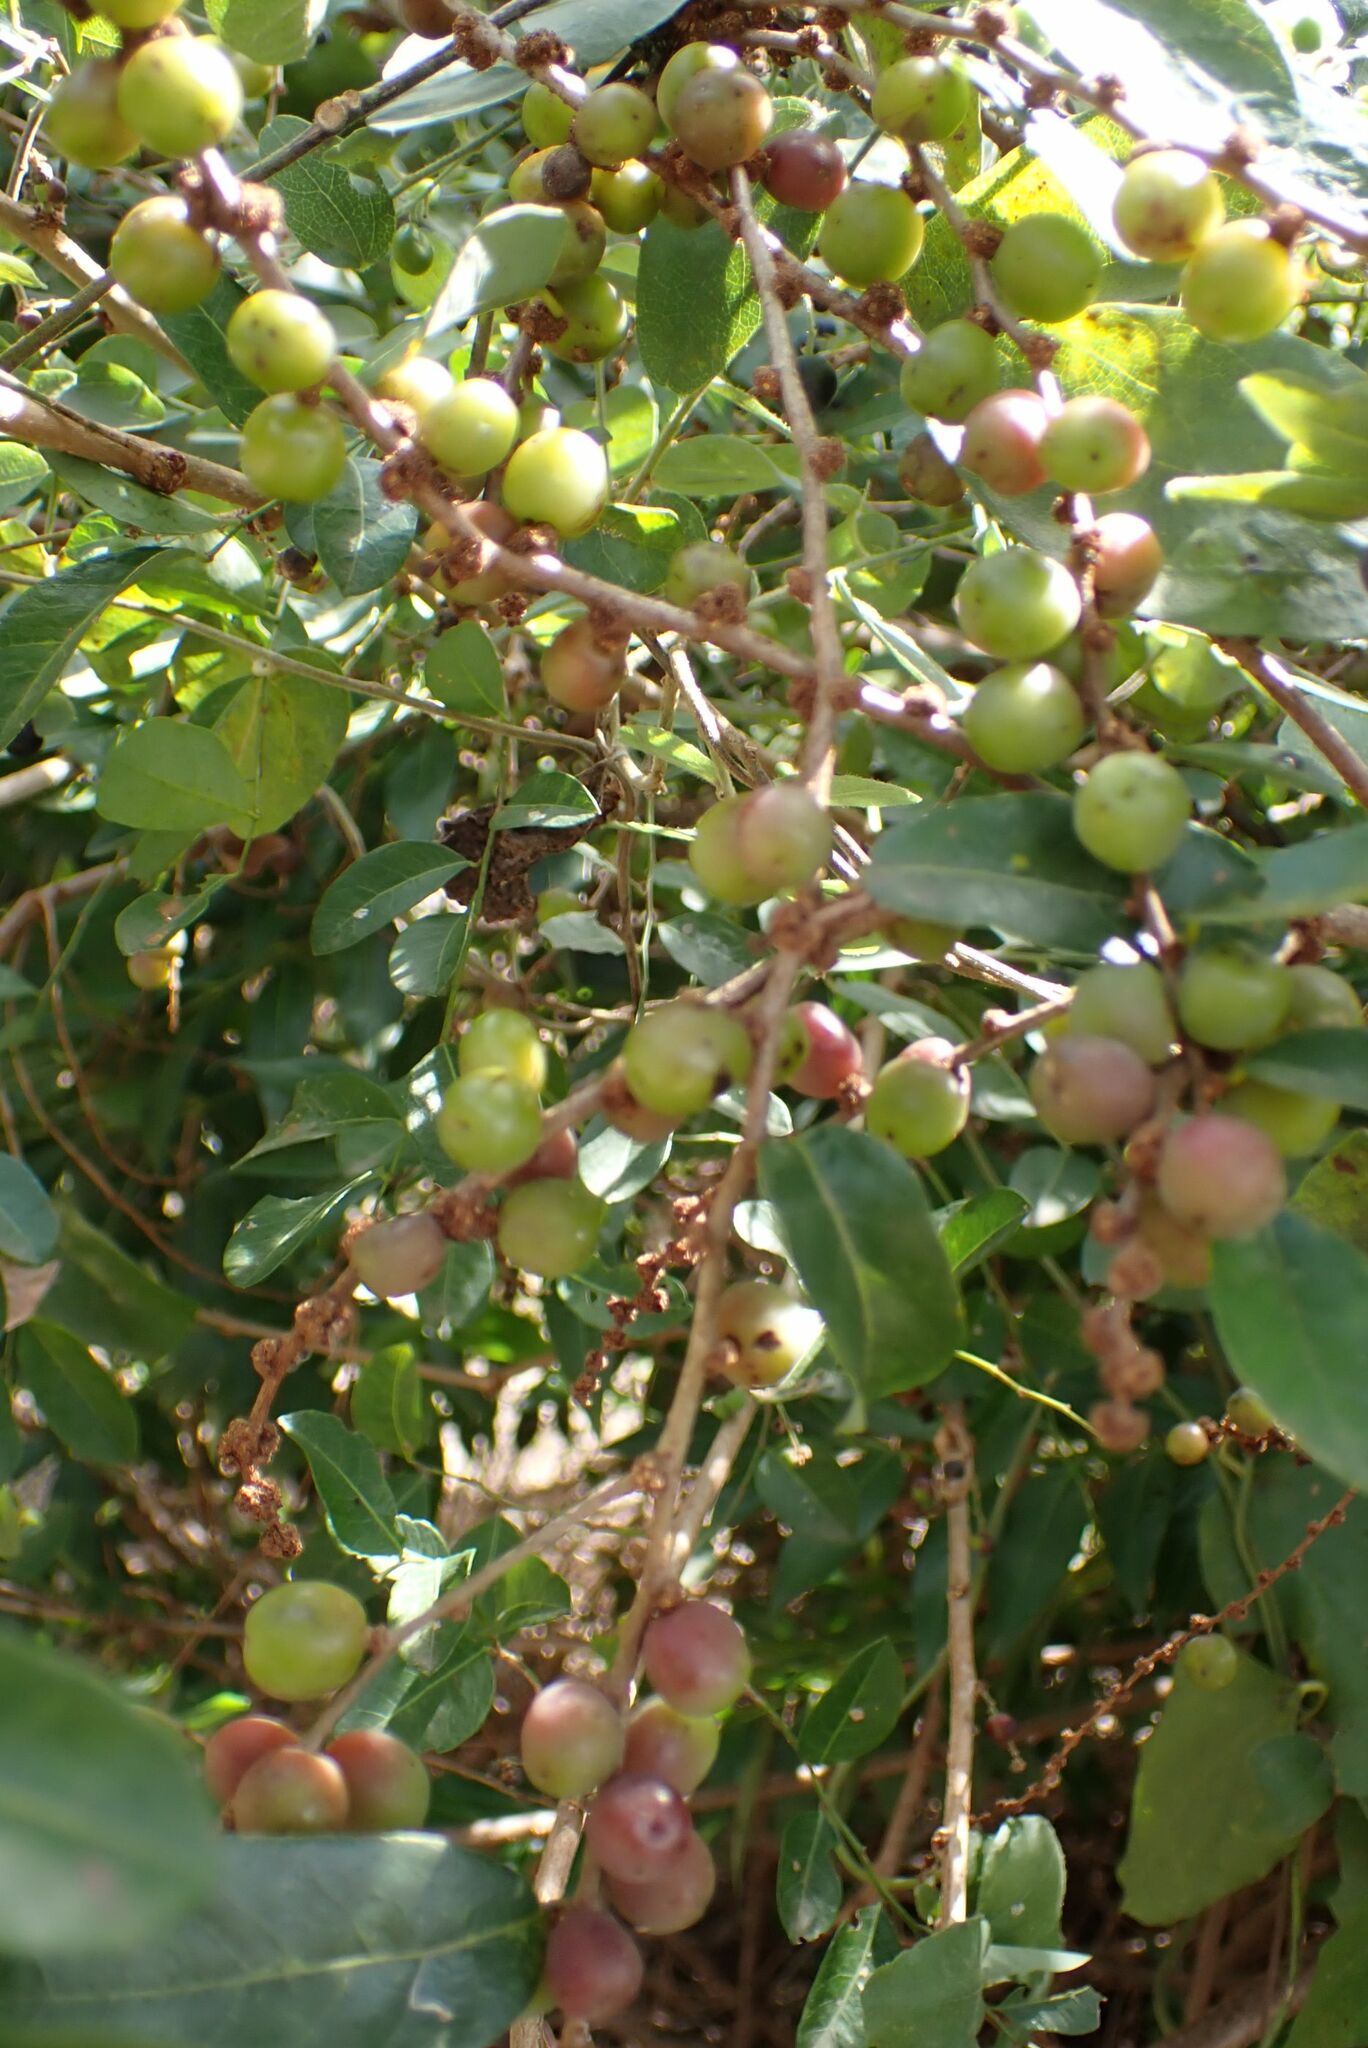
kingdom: Plantae
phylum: Tracheophyta
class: Magnoliopsida
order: Malpighiales
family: Phyllanthaceae
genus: Bridelia
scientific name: Bridelia cathartica
